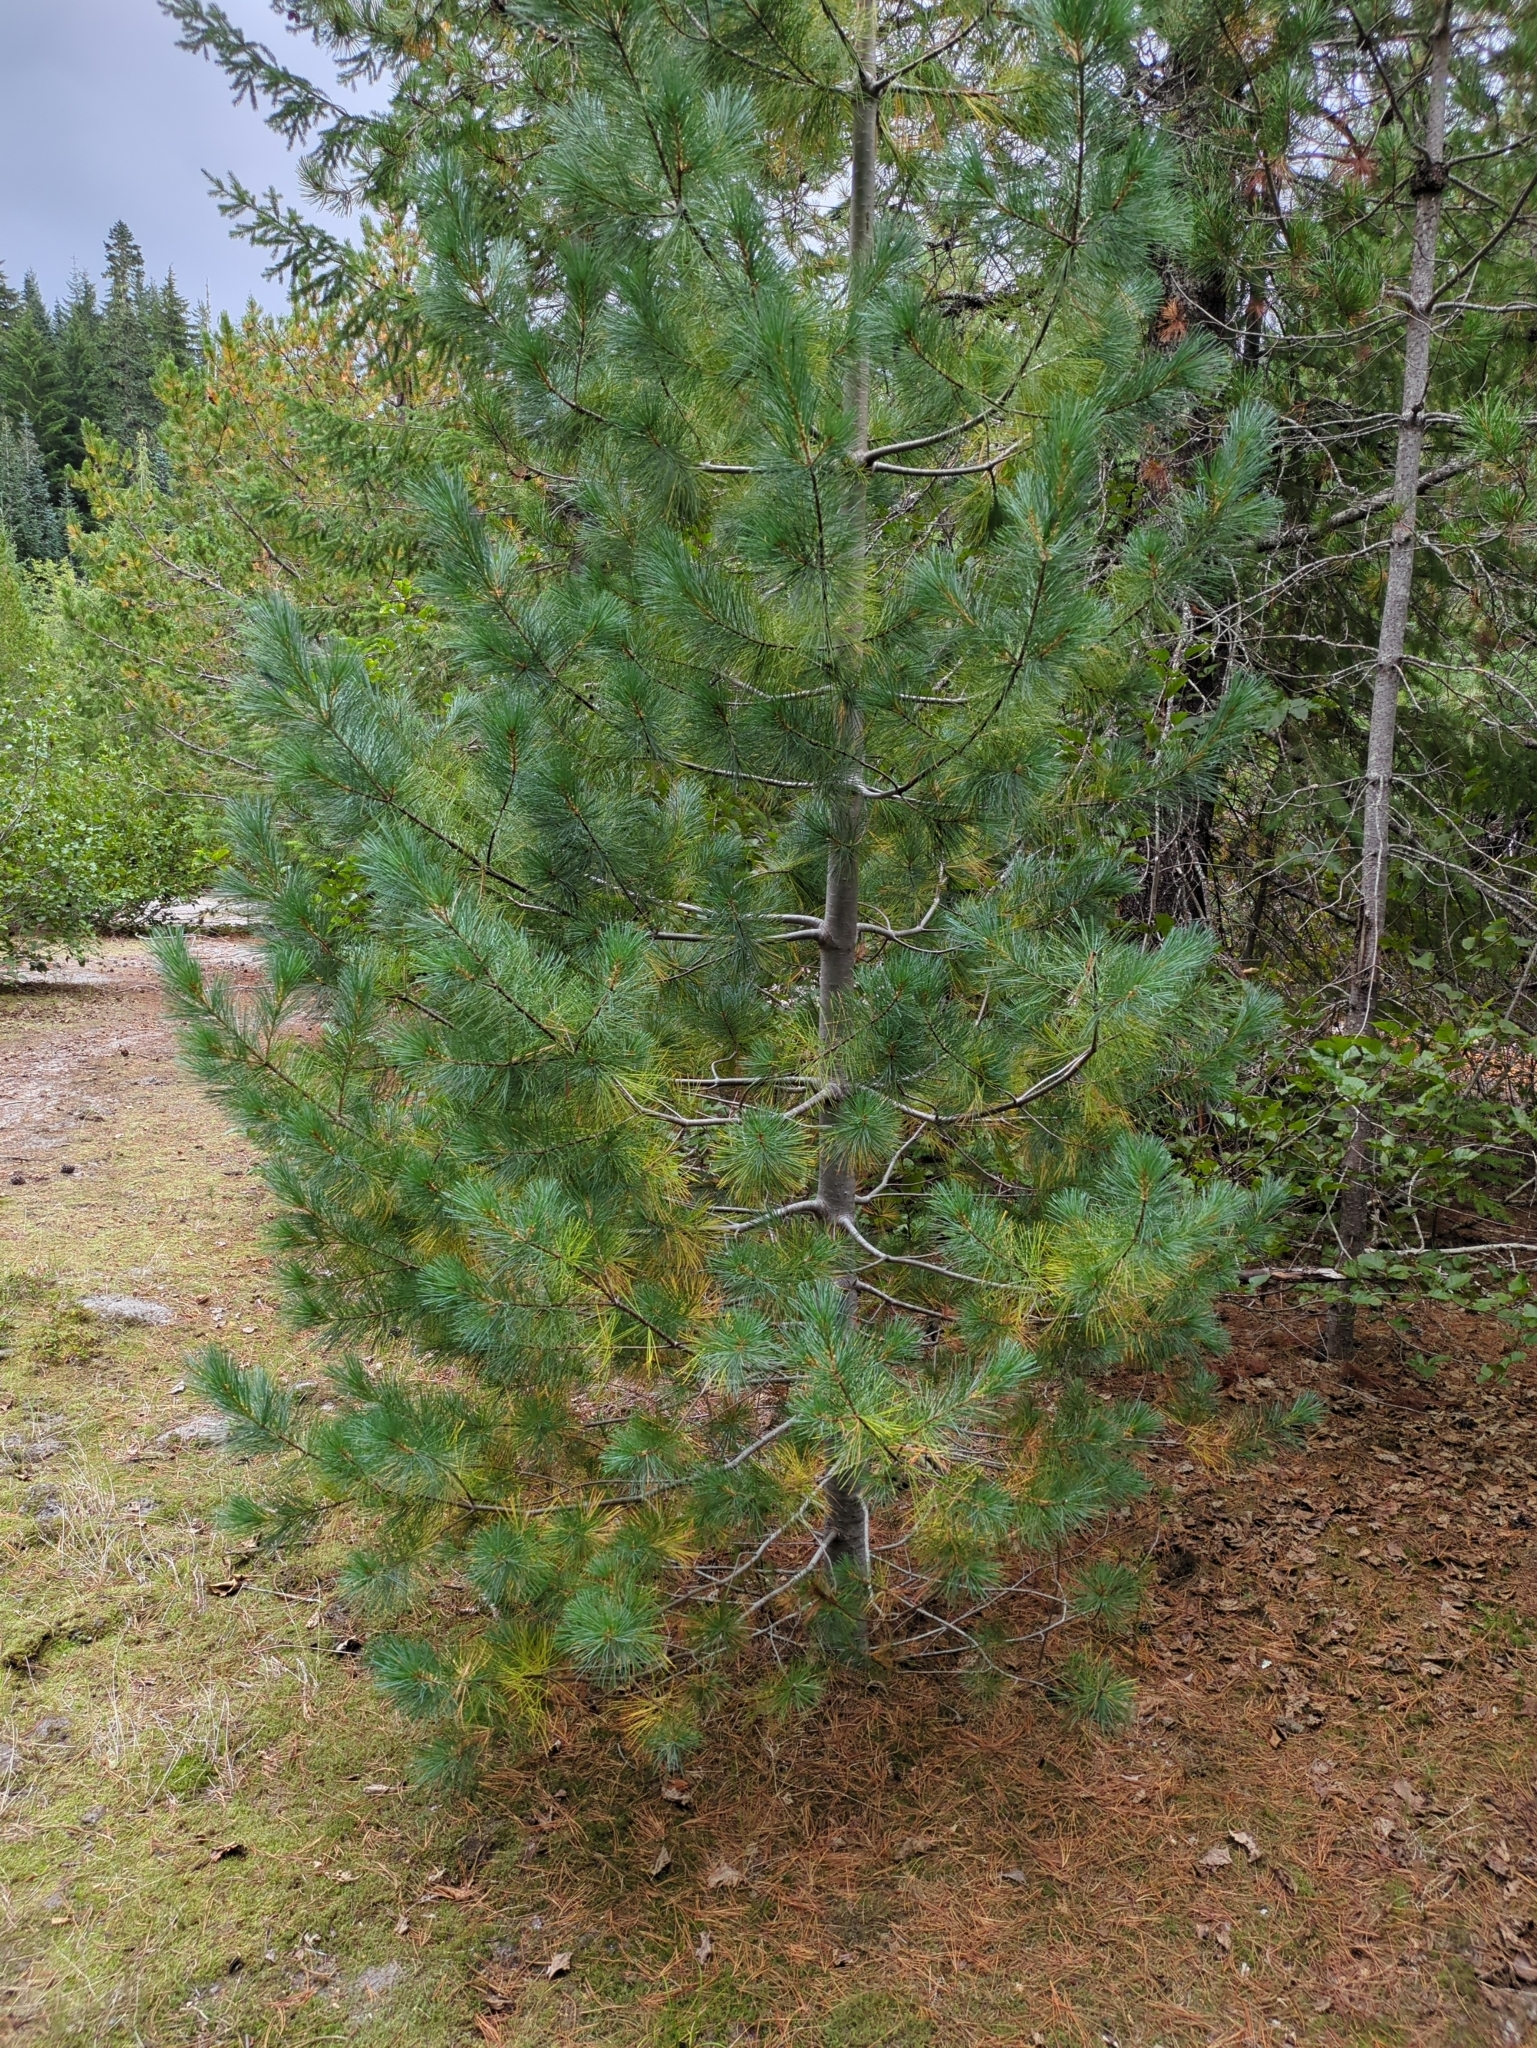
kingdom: Plantae
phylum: Tracheophyta
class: Pinopsida
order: Pinales
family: Pinaceae
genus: Pinus
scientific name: Pinus monticola
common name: Western white pine
